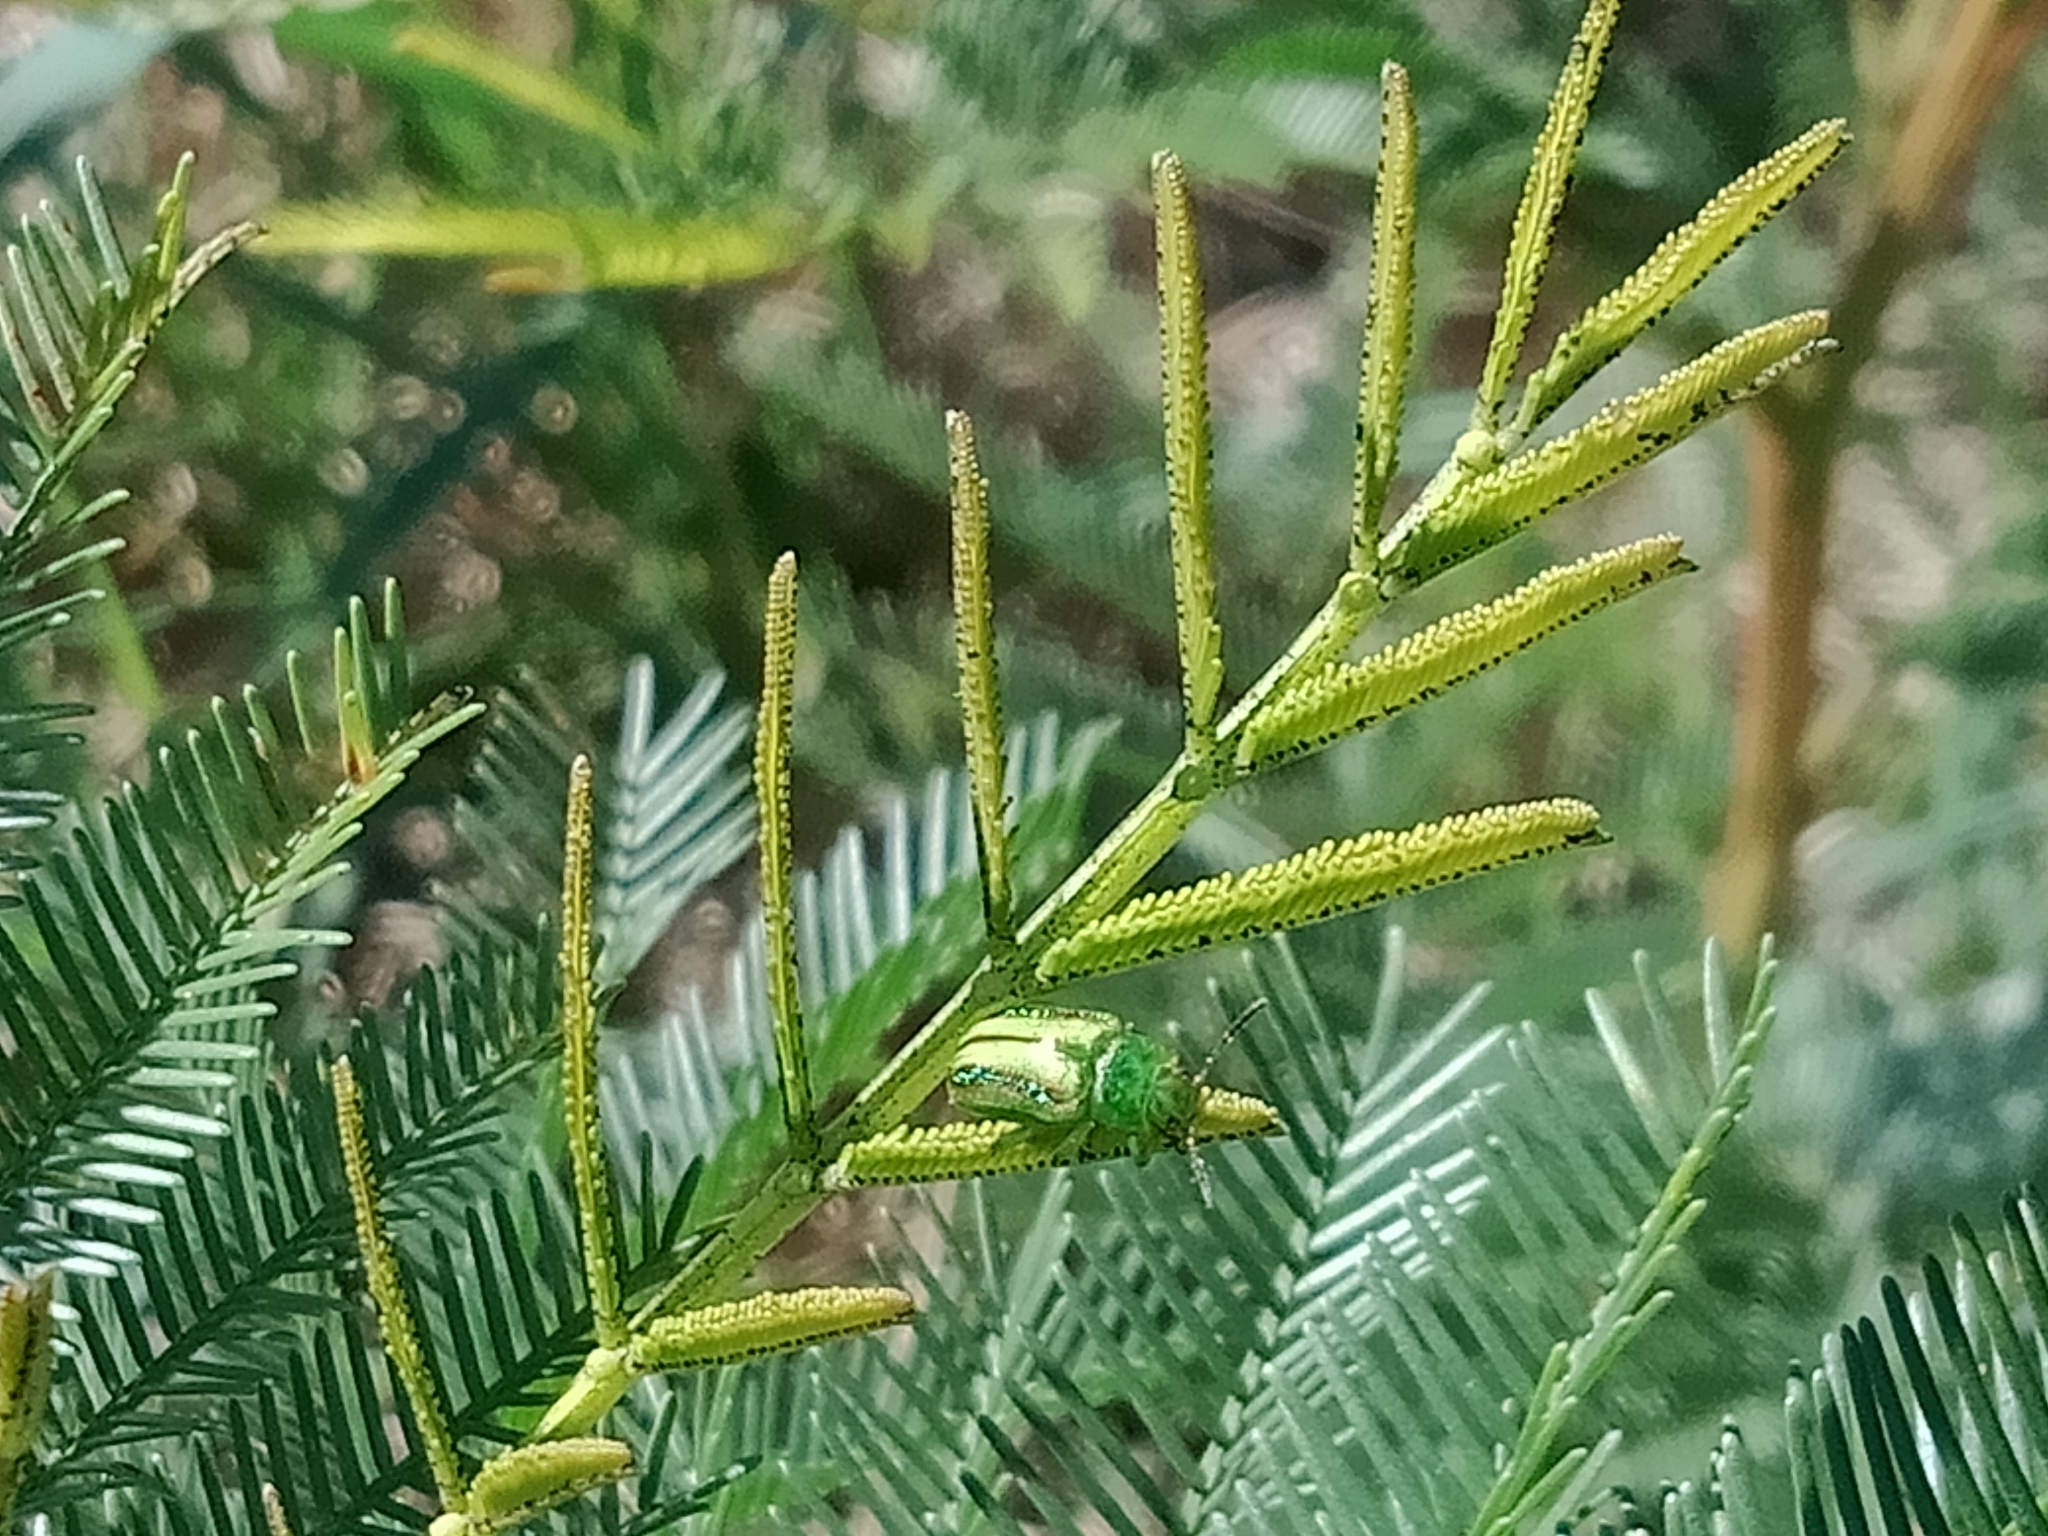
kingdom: Animalia
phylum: Arthropoda
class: Insecta
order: Coleoptera
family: Chrysomelidae
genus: Calomela
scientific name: Calomela
